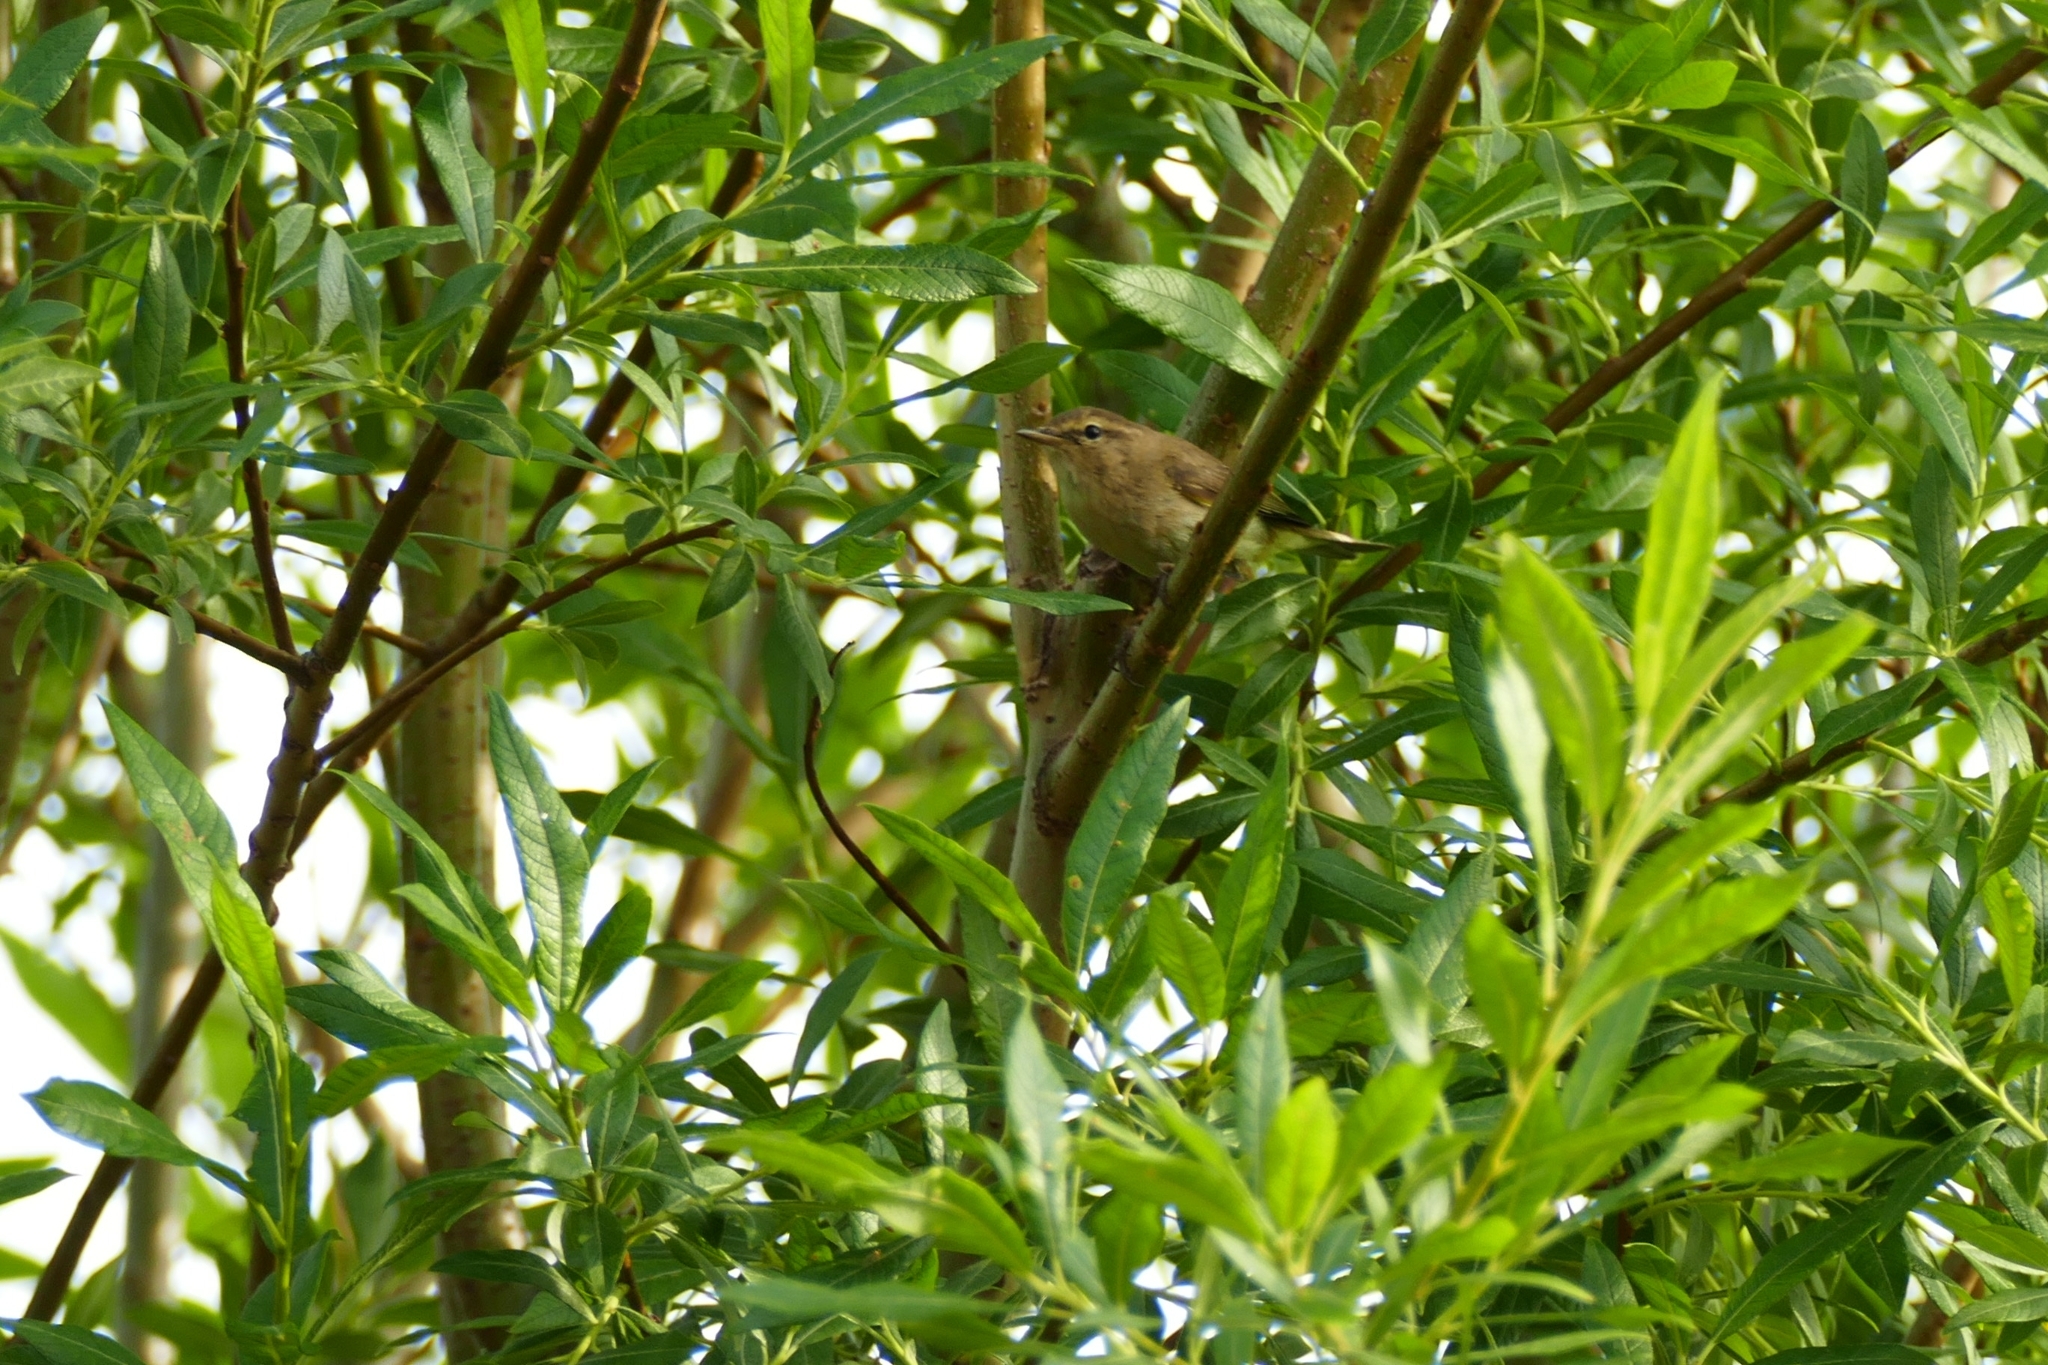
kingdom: Animalia
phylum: Chordata
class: Aves
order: Passeriformes
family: Phylloscopidae
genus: Phylloscopus
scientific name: Phylloscopus collybita
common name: Common chiffchaff
